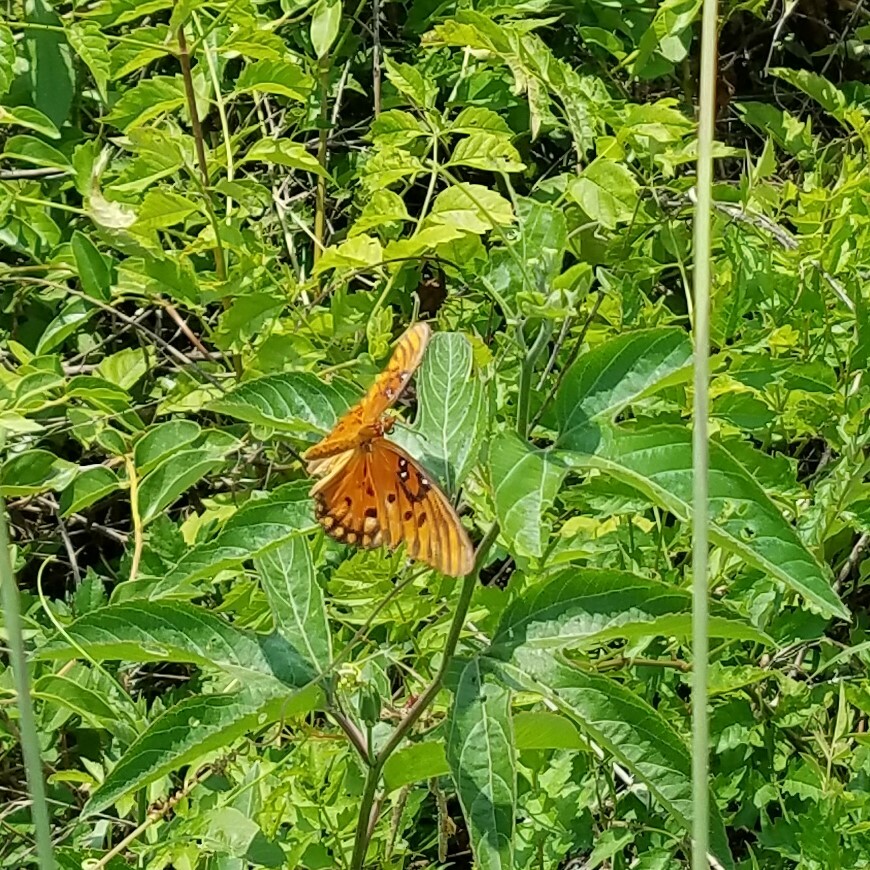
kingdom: Animalia
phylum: Arthropoda
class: Insecta
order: Lepidoptera
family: Nymphalidae
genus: Dione
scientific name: Dione vanillae
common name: Gulf fritillary
